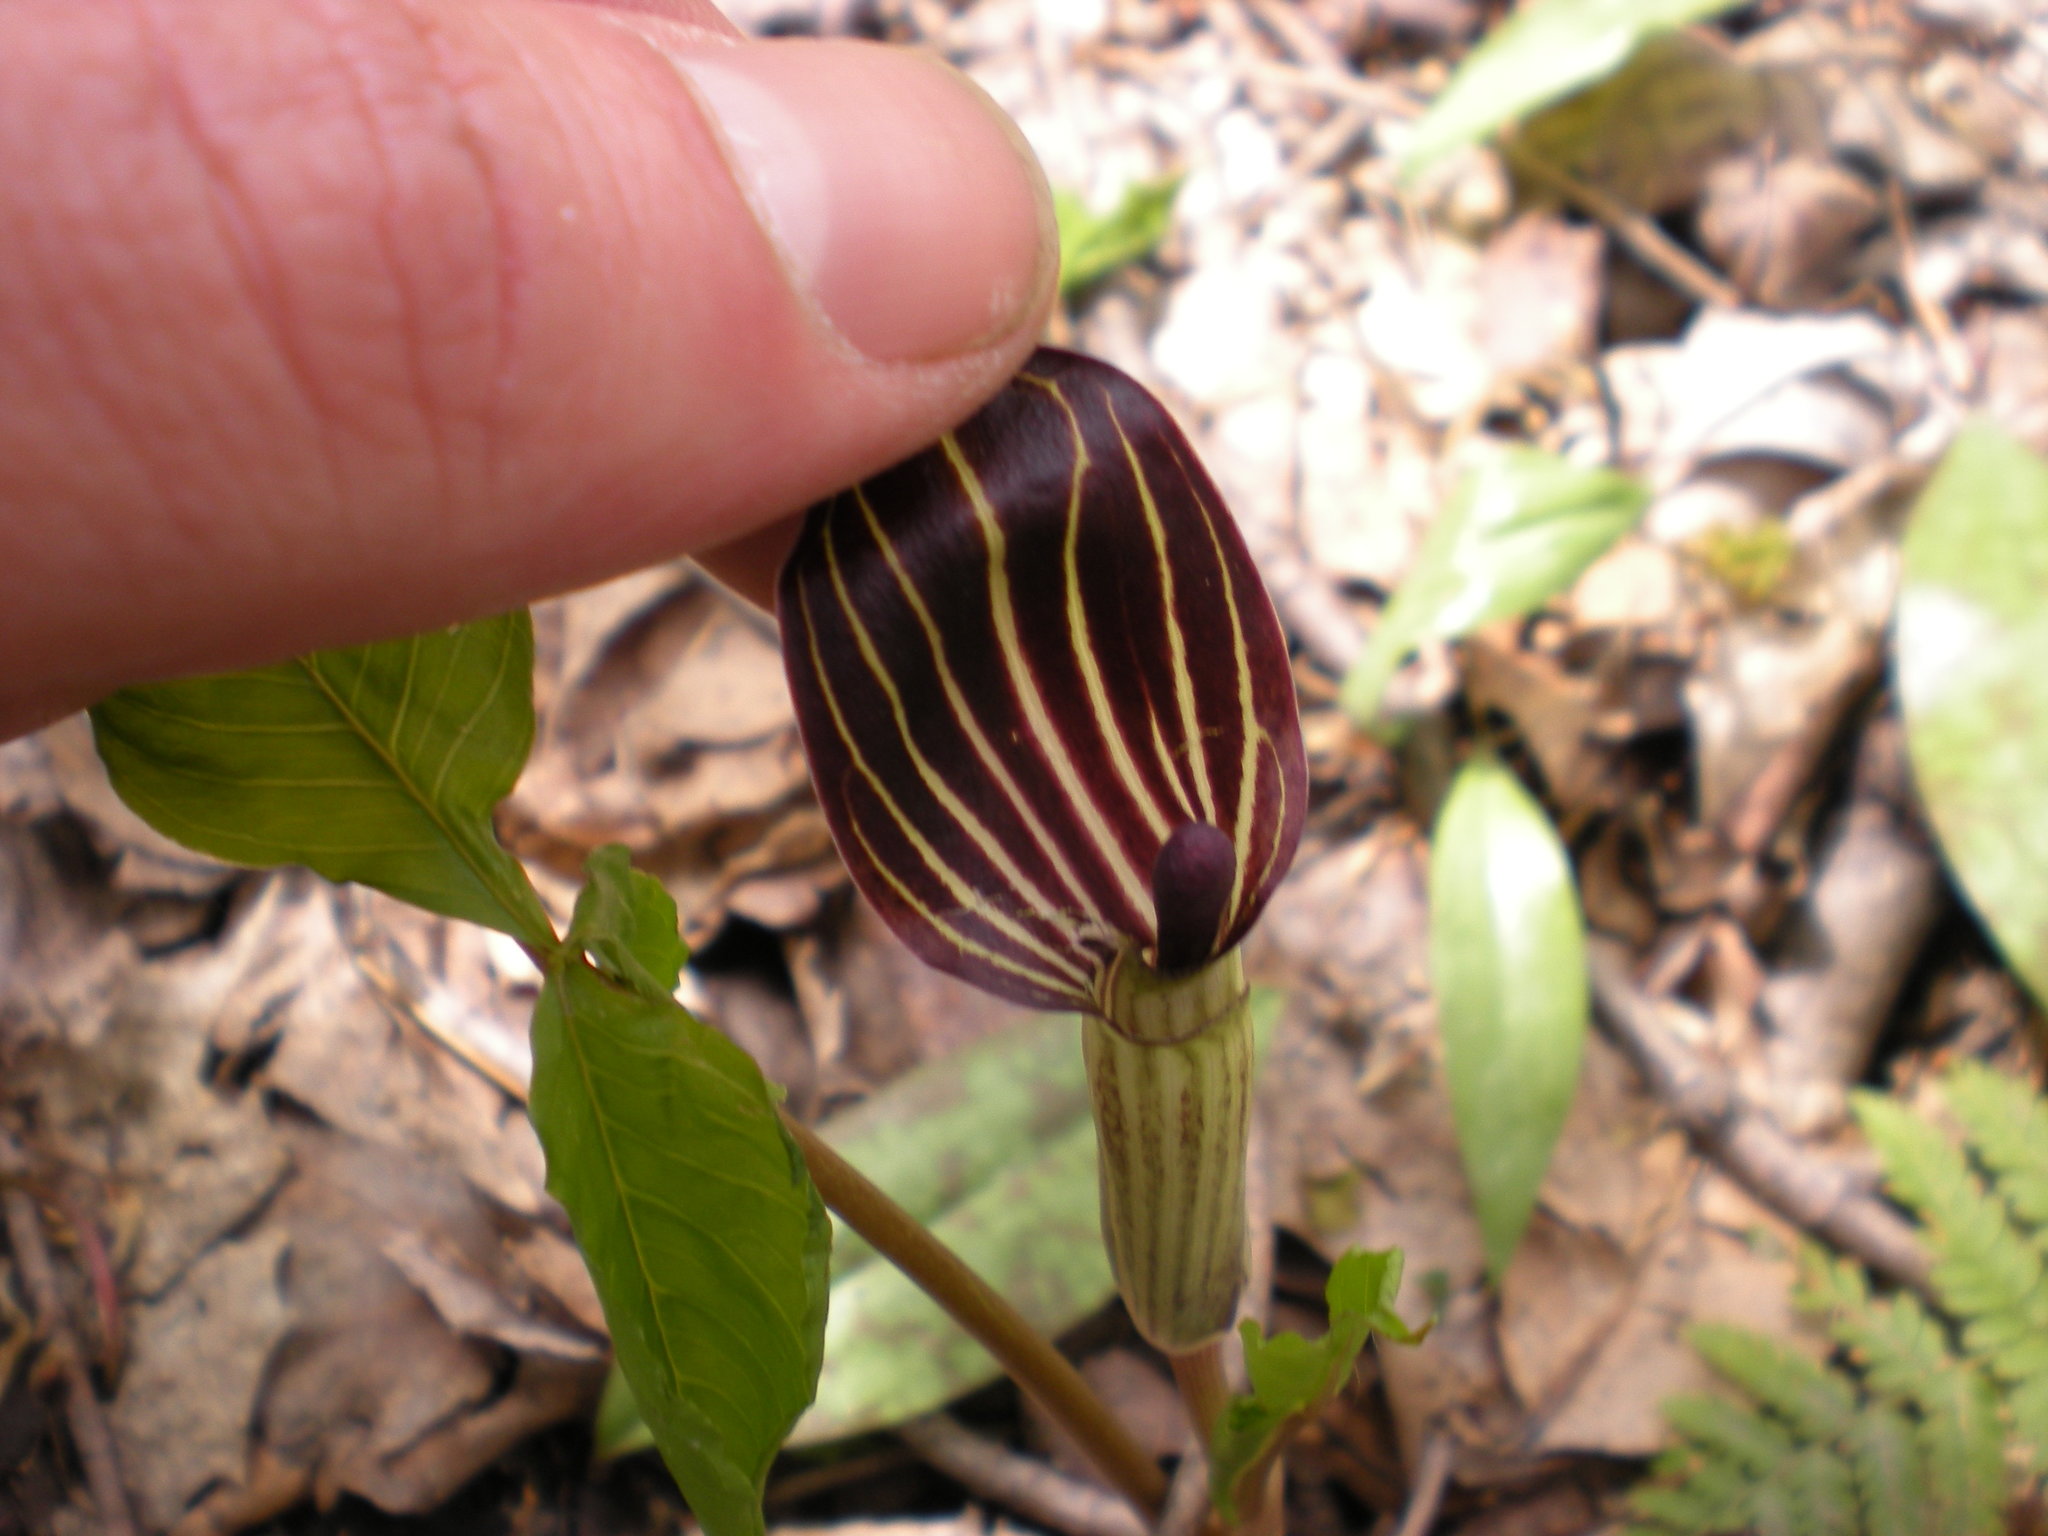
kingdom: Plantae
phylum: Tracheophyta
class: Liliopsida
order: Alismatales
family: Araceae
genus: Arisaema
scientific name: Arisaema triphyllum
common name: Jack-in-the-pulpit
